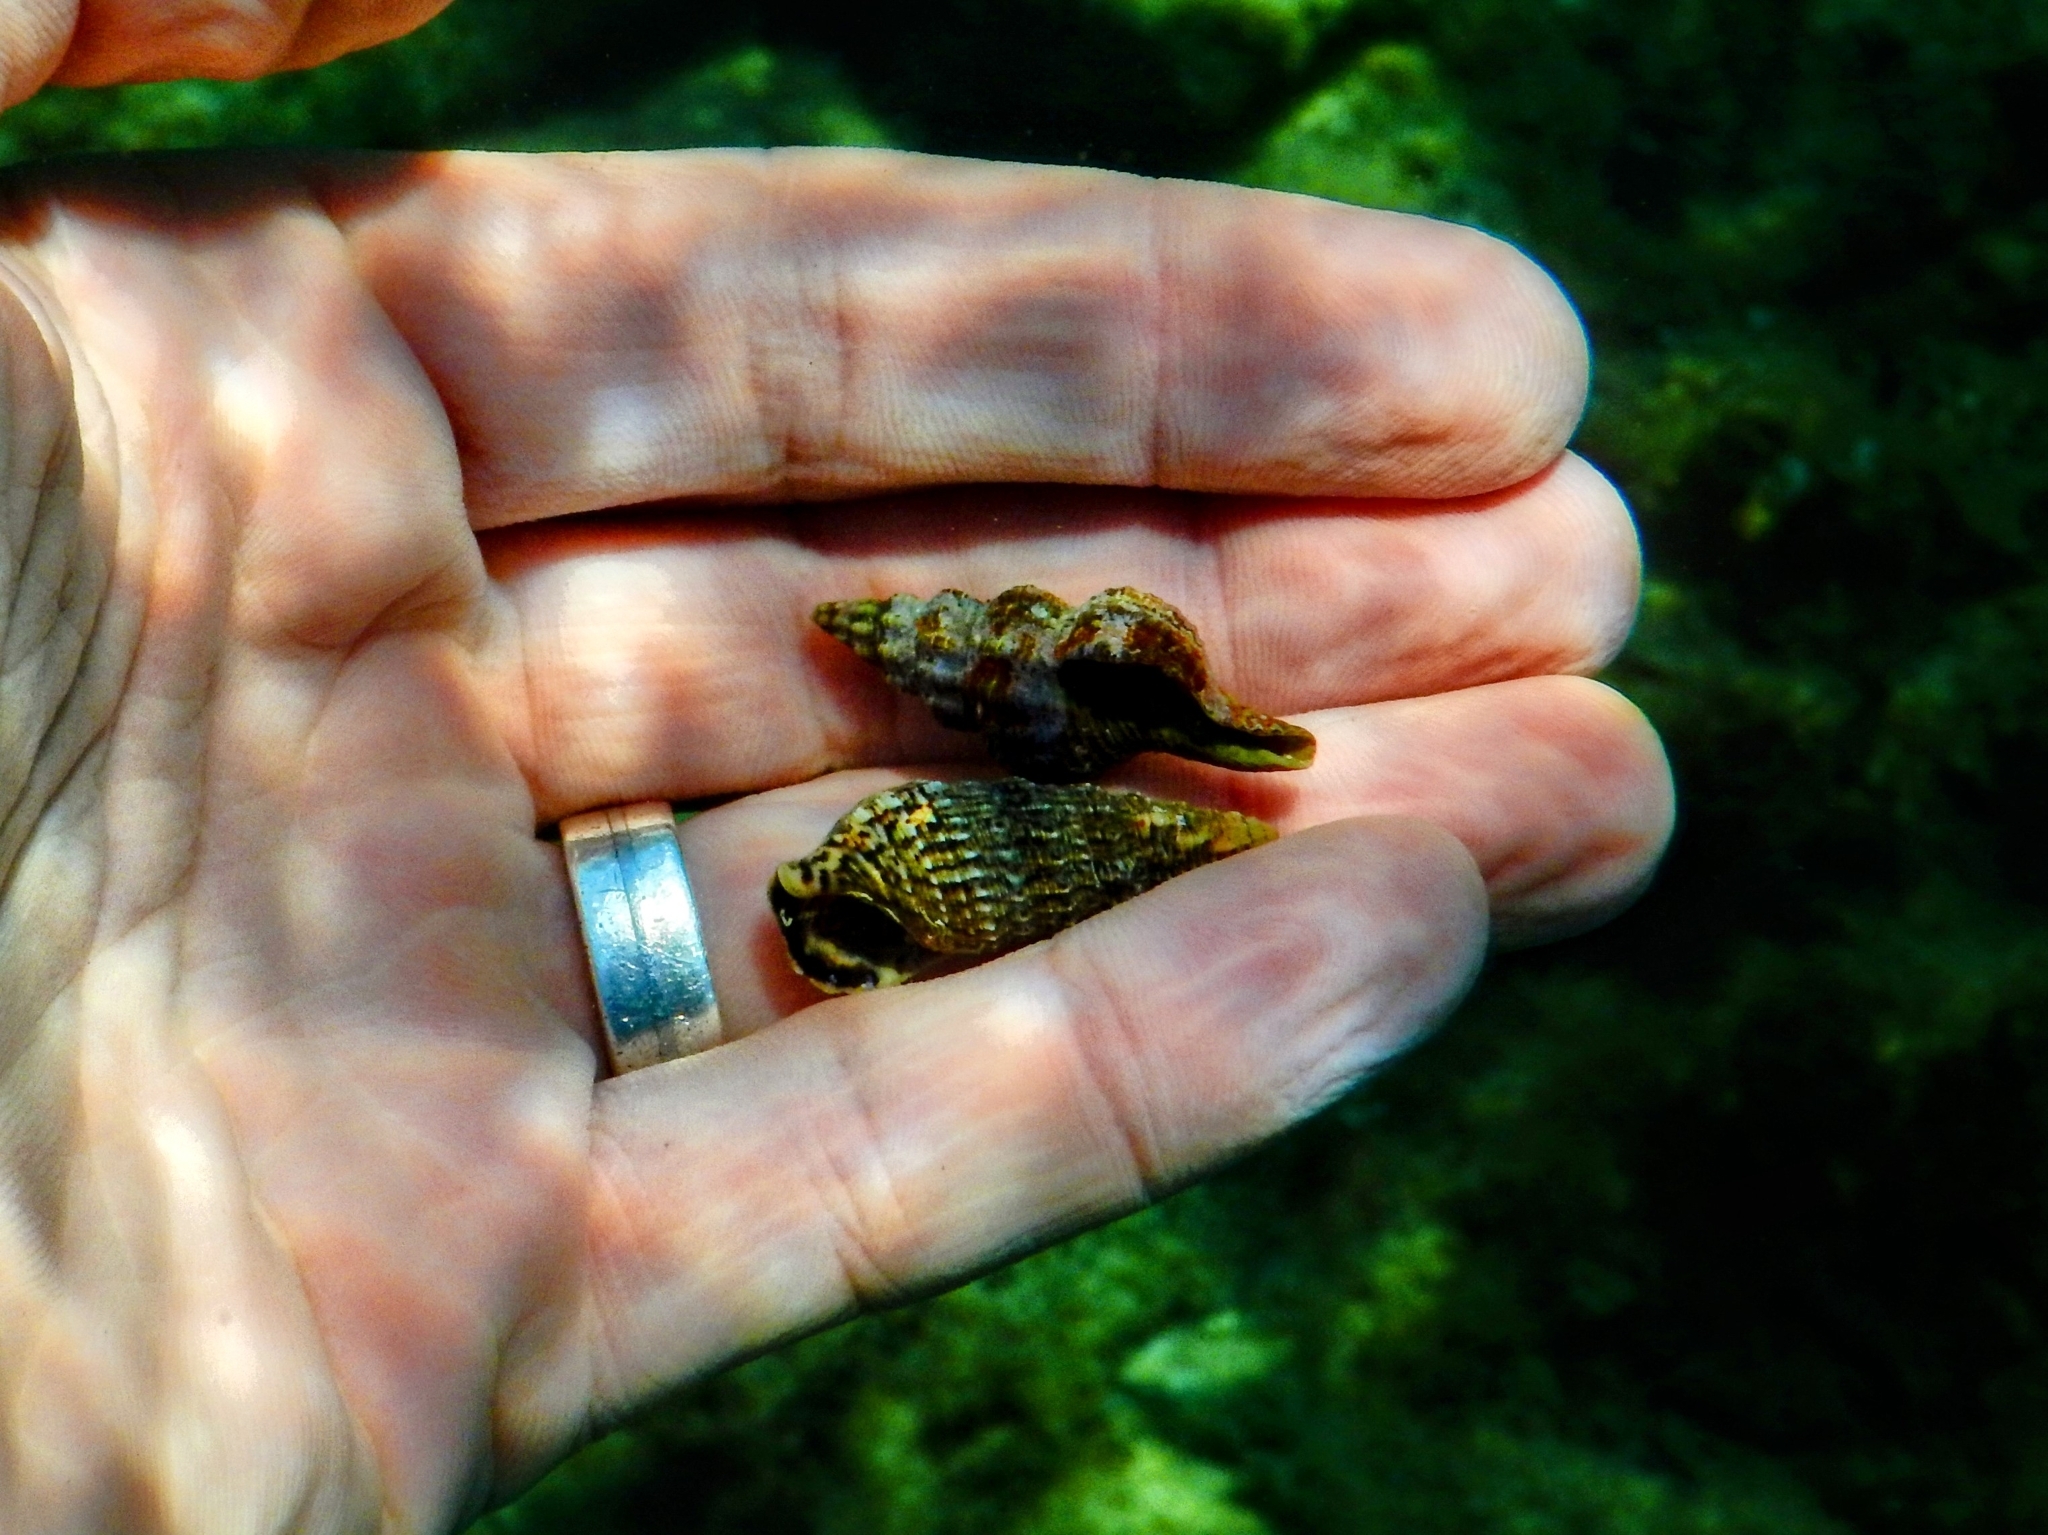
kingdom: Animalia
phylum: Mollusca
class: Gastropoda
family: Cerithiidae
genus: Cerithium
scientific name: Cerithium vulgatum
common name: European cerith
